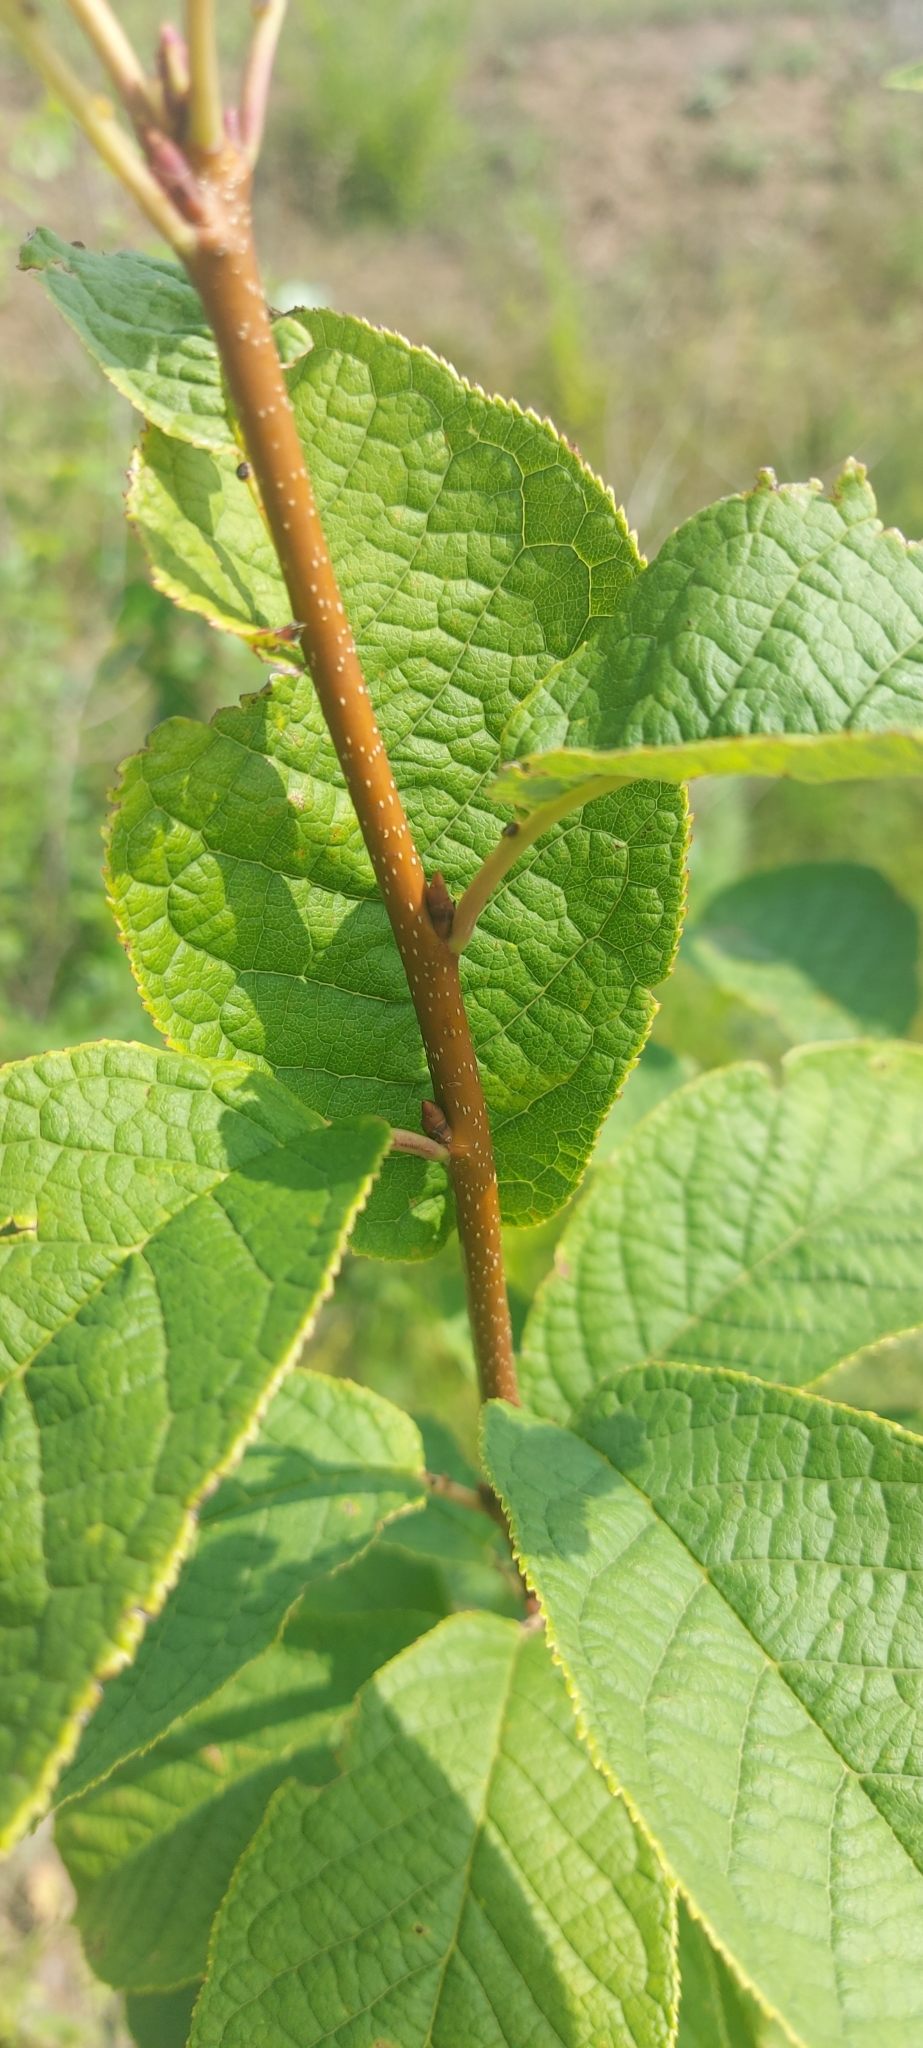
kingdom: Plantae
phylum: Tracheophyta
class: Magnoliopsida
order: Rosales
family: Rosaceae
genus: Prunus
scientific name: Prunus padus
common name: Bird cherry
